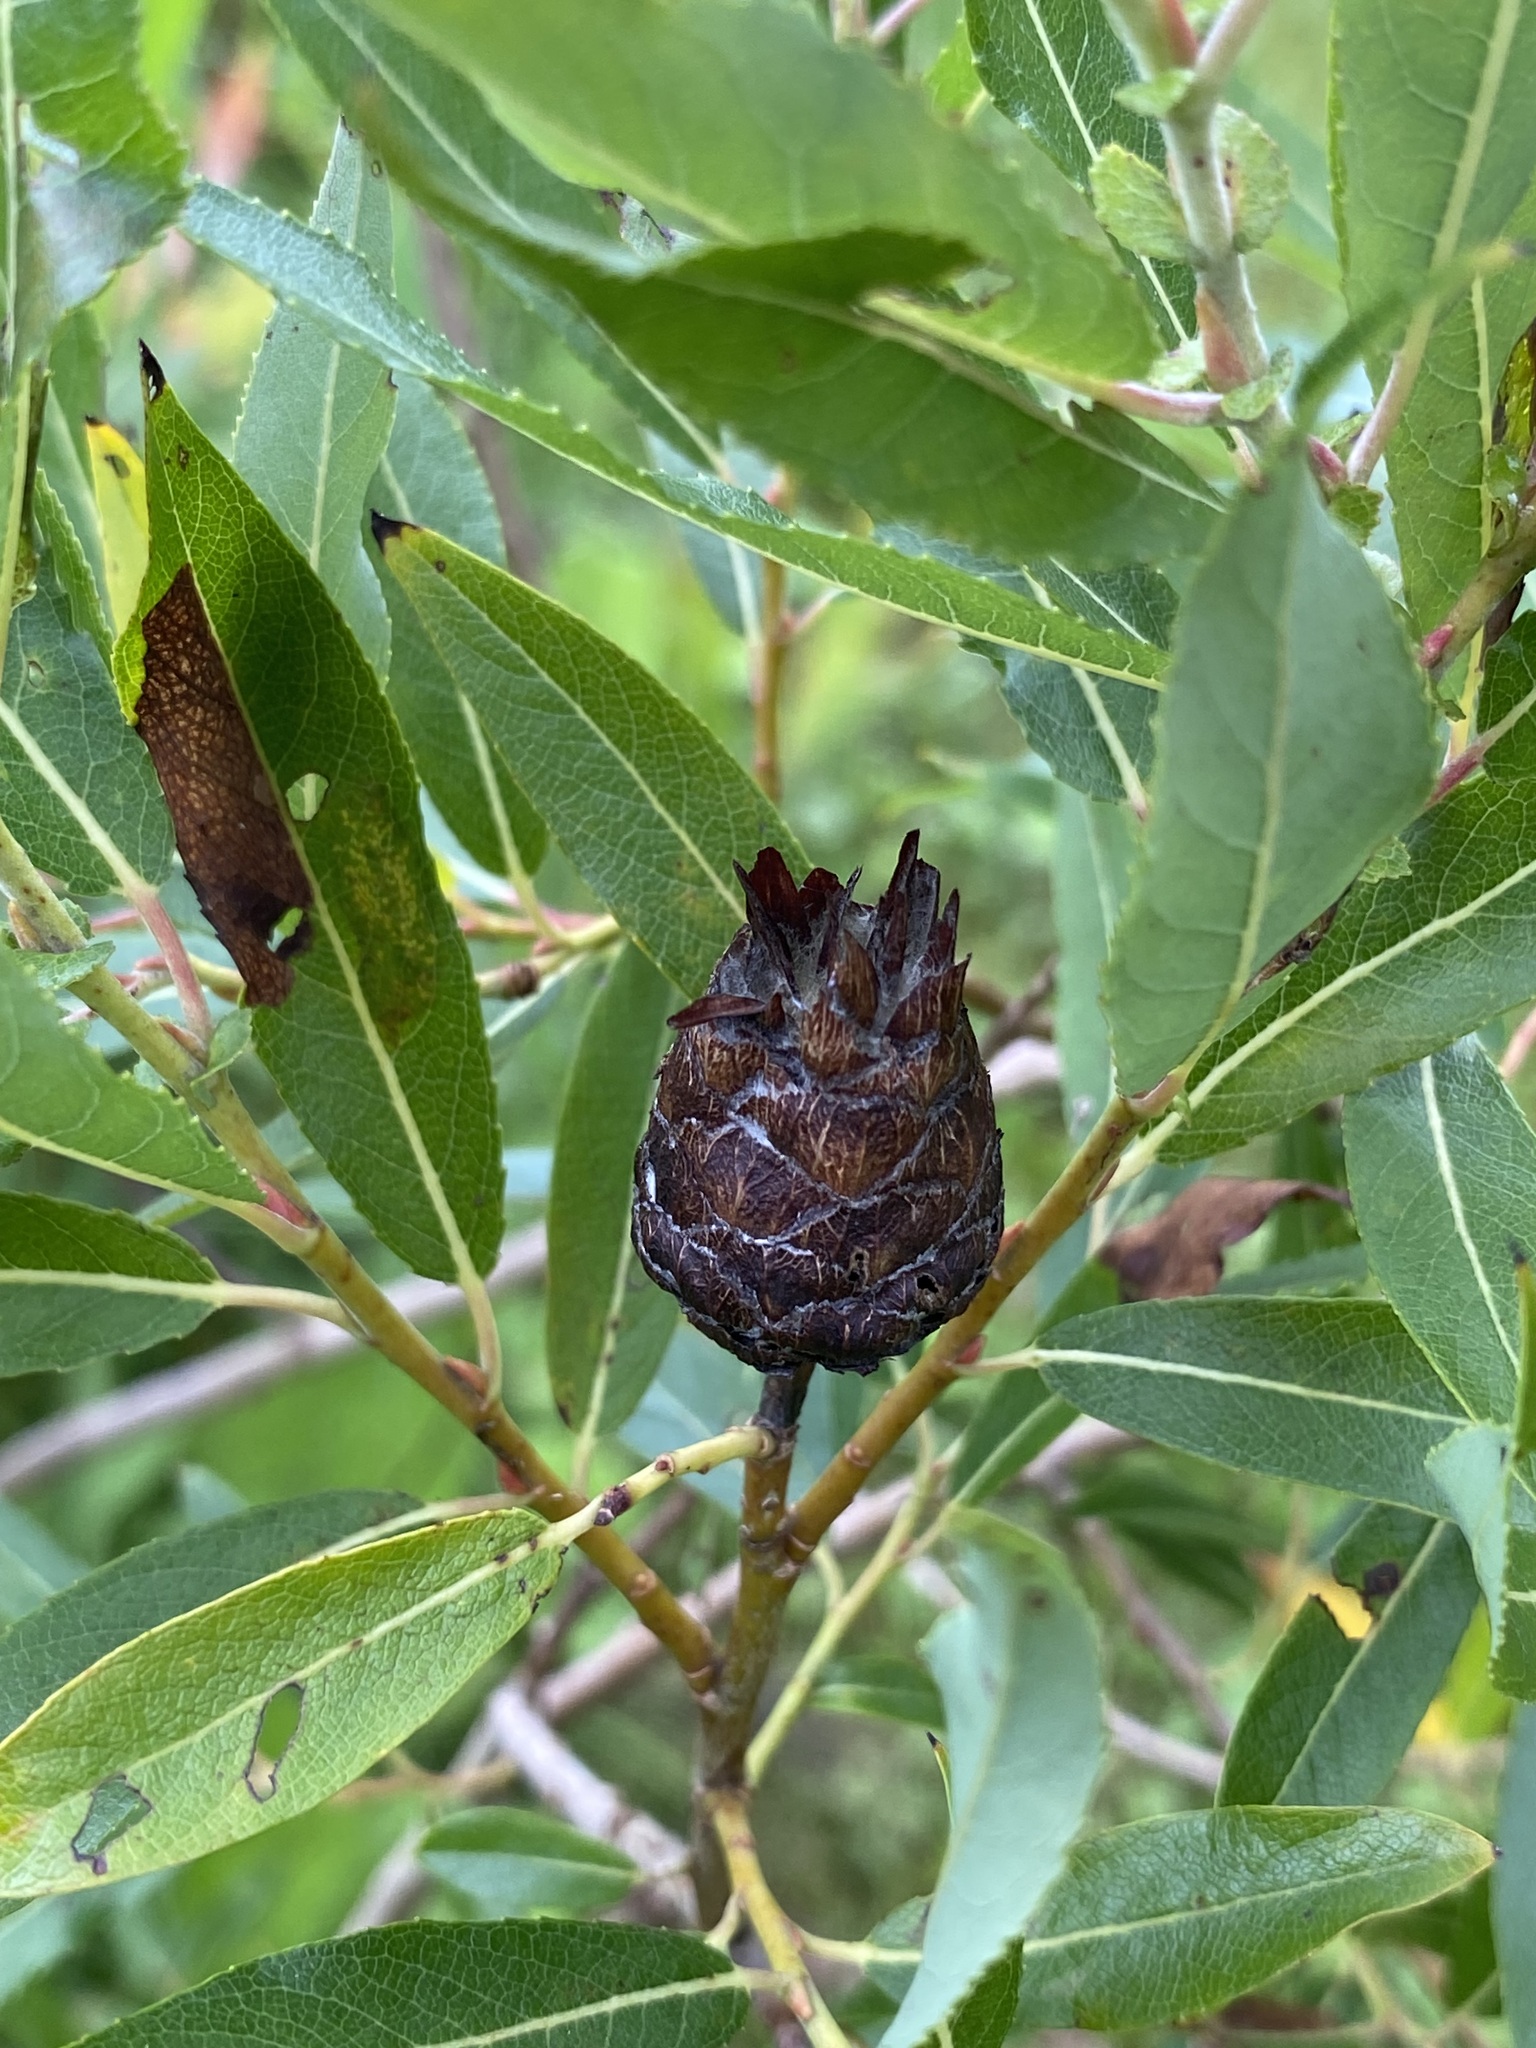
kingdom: Animalia
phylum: Arthropoda
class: Insecta
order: Diptera
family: Cecidomyiidae
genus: Rabdophaga
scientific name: Rabdophaga strobiloides
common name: Willow pinecone gall midge
